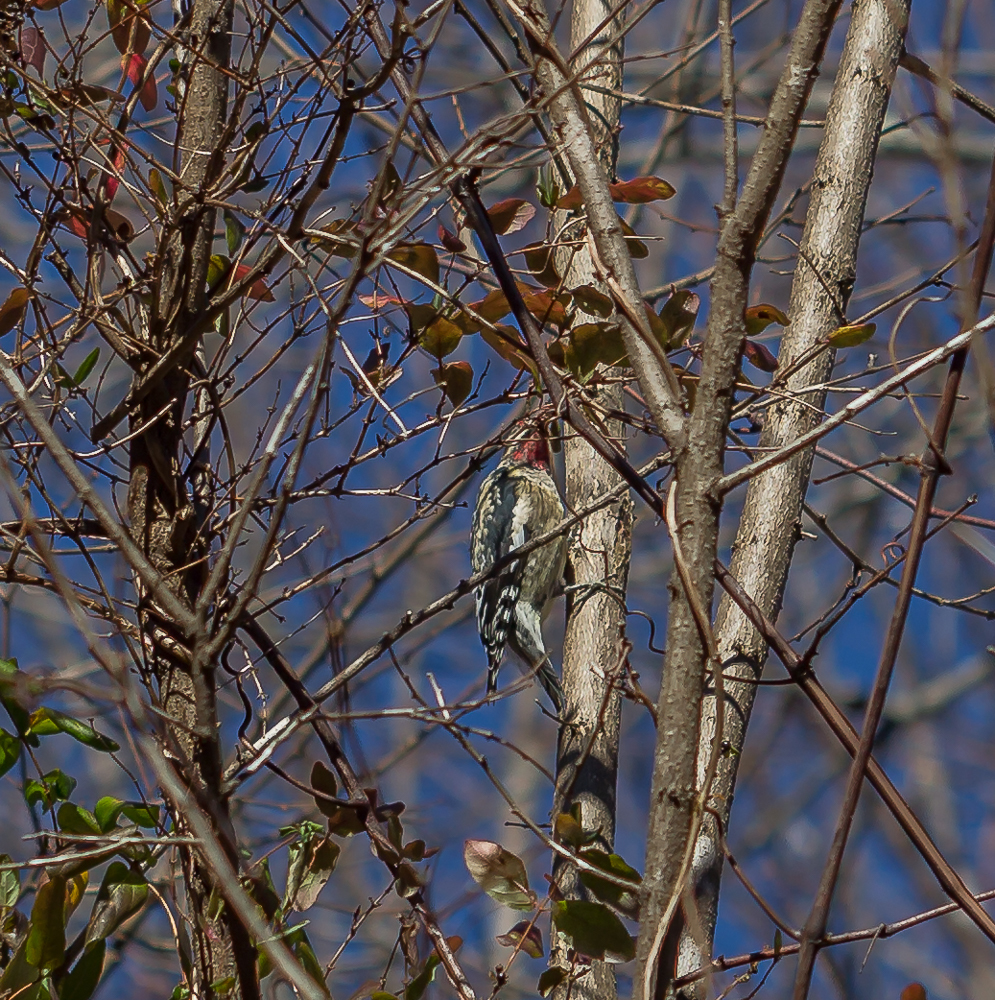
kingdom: Animalia
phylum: Chordata
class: Aves
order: Piciformes
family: Picidae
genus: Sphyrapicus
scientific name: Sphyrapicus varius
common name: Yellow-bellied sapsucker
